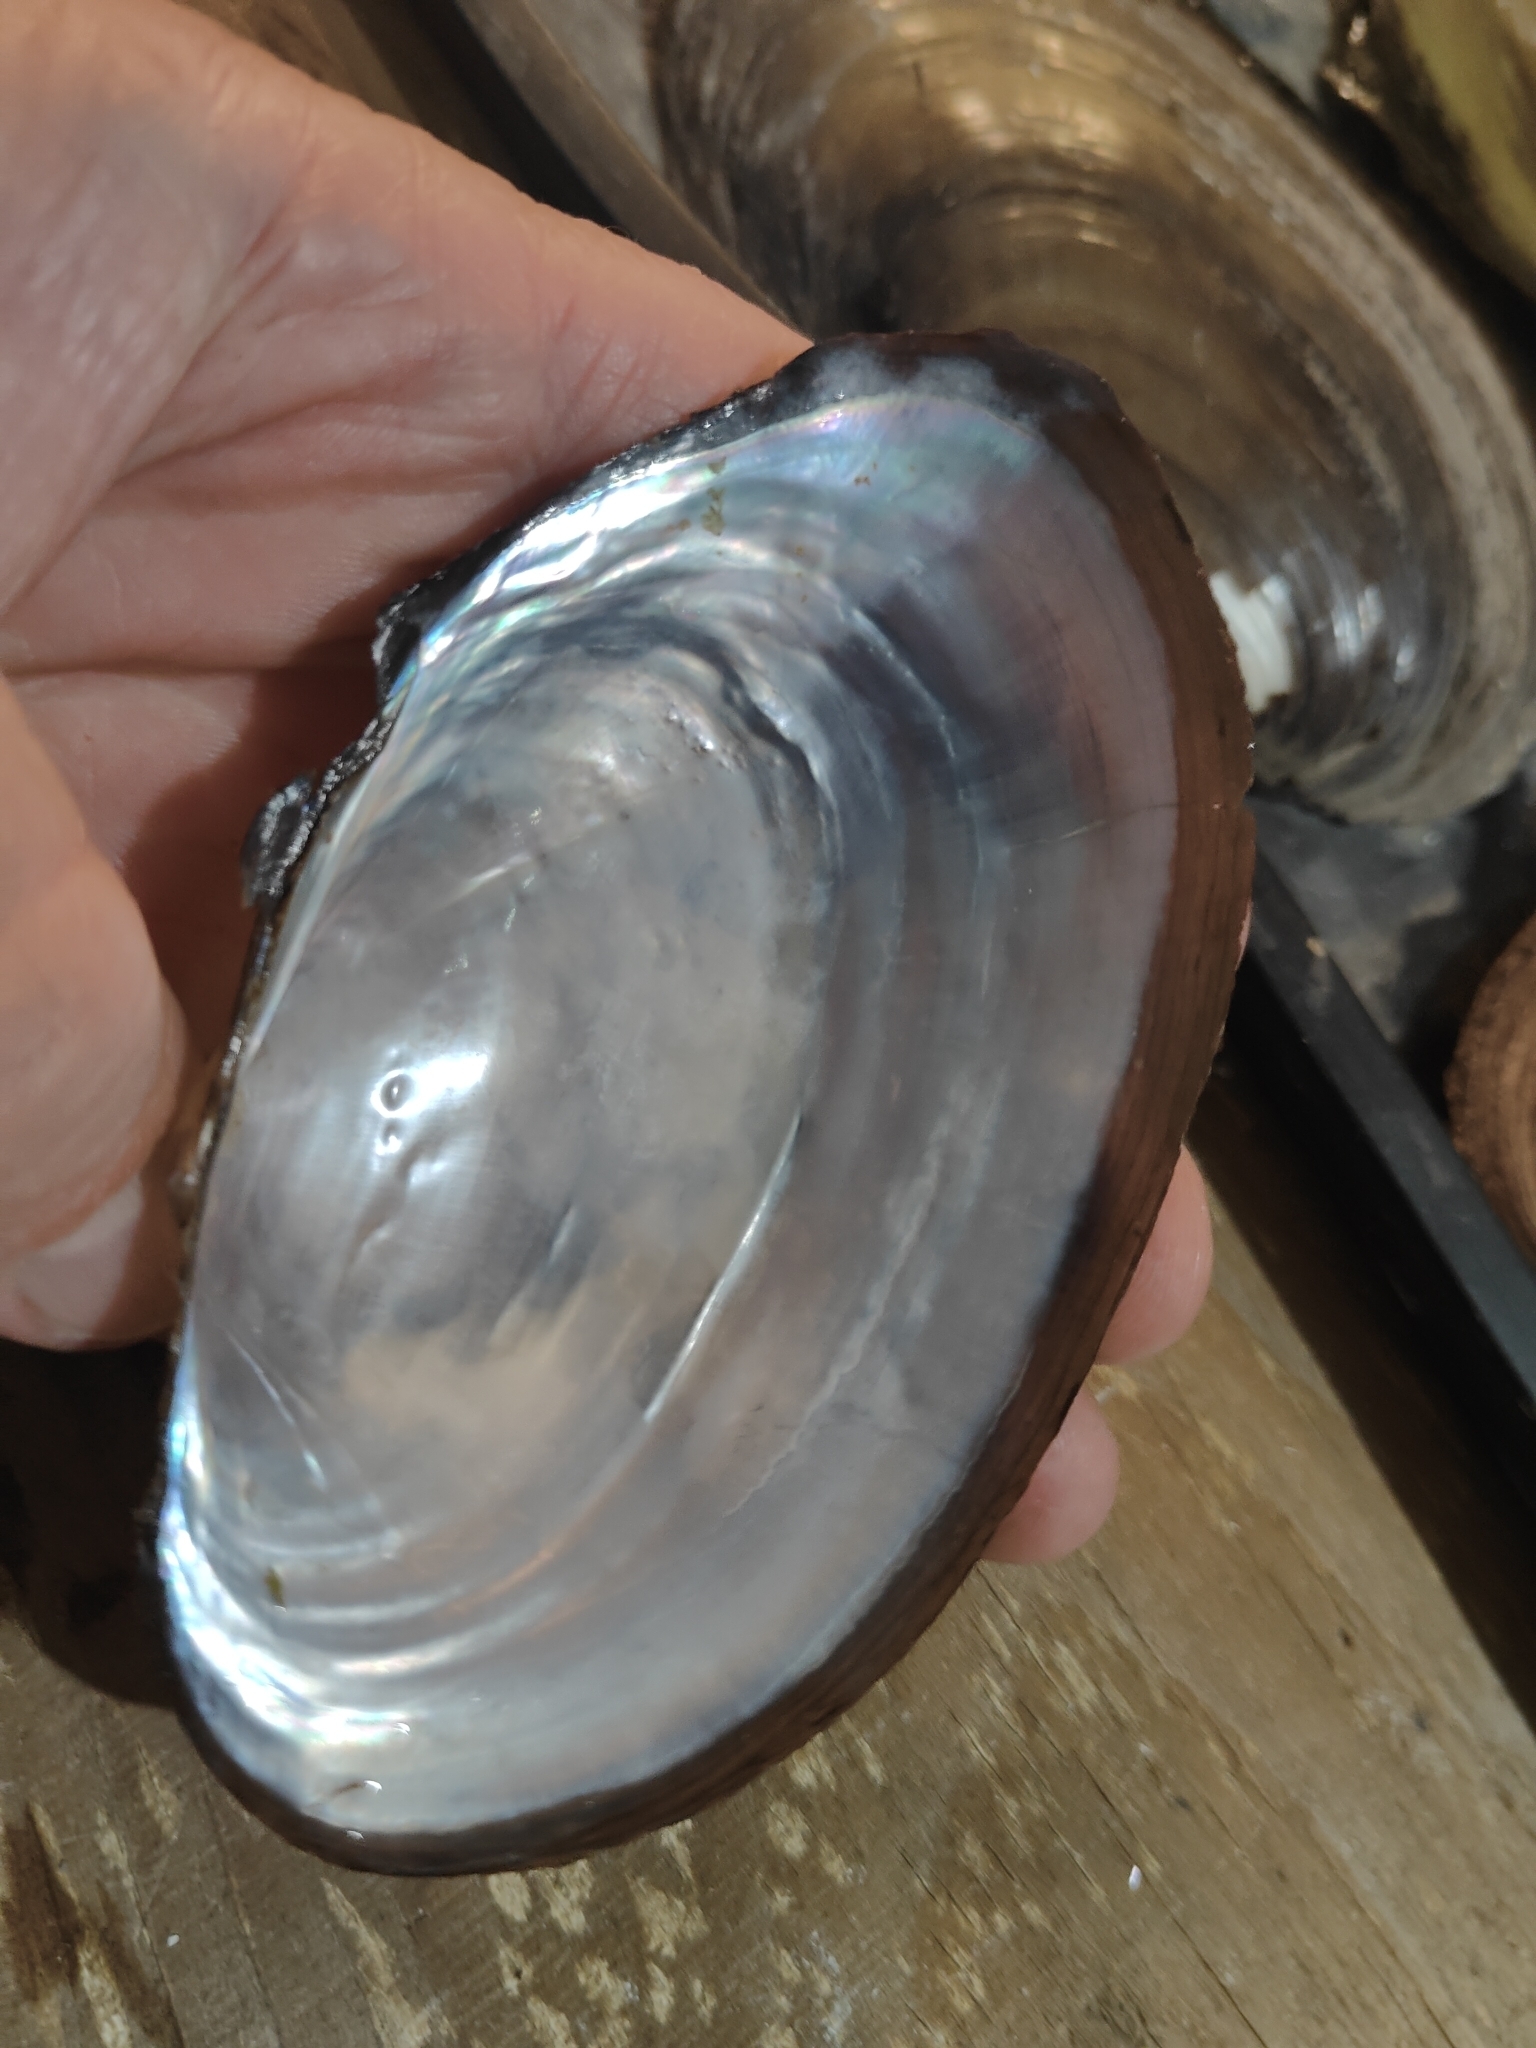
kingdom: Animalia
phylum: Mollusca
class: Bivalvia
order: Unionida
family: Unionidae
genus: Pyganodon
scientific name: Pyganodon grandis
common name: Giant floater
